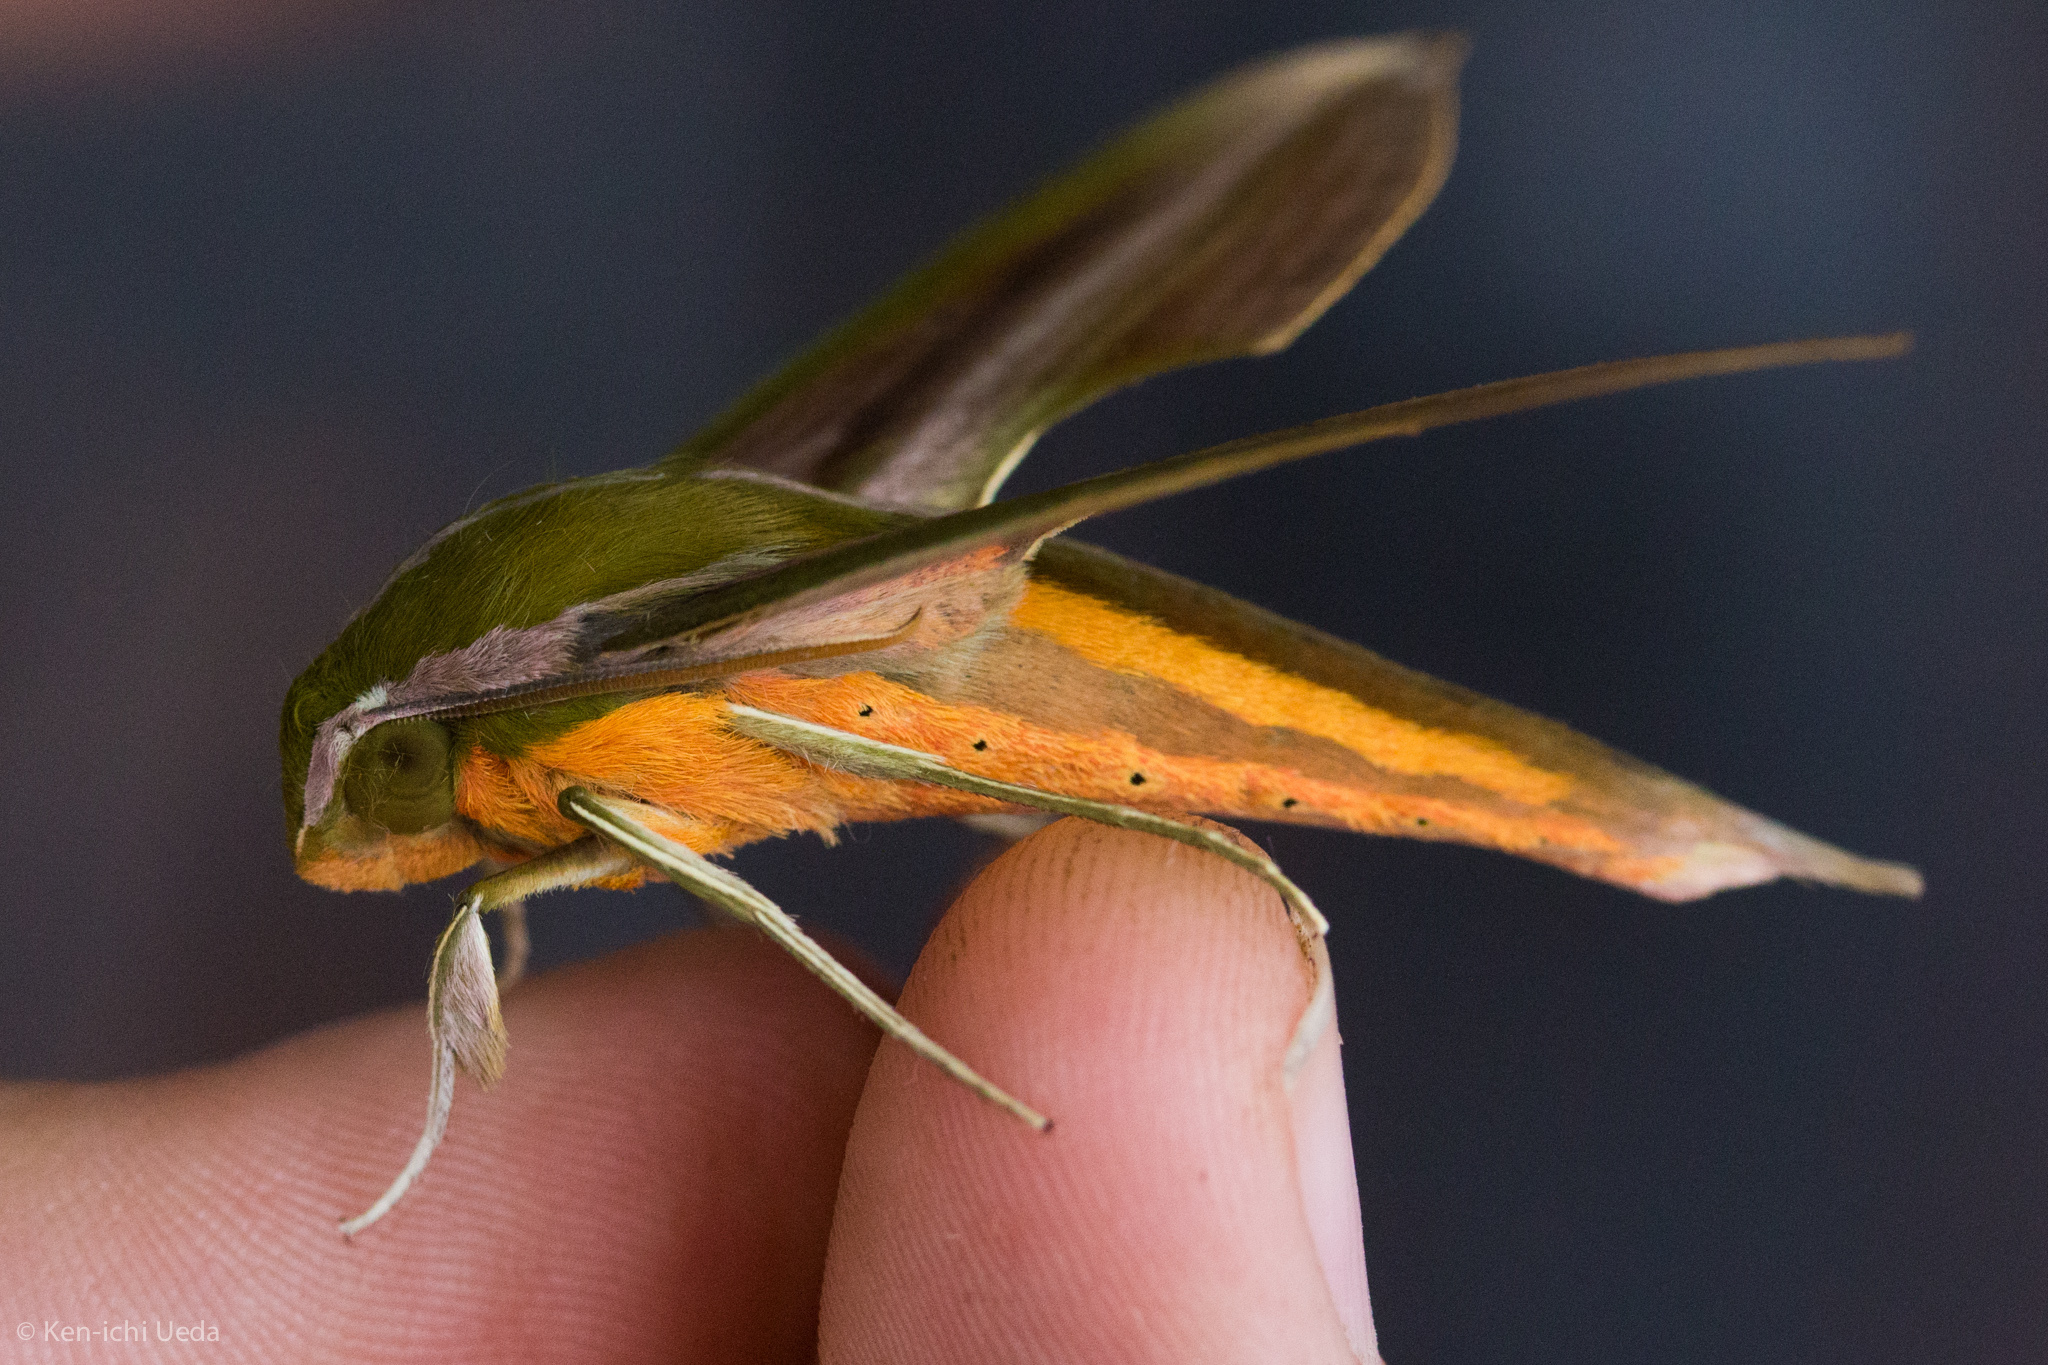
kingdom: Animalia
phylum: Arthropoda
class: Insecta
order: Lepidoptera
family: Sphingidae
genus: Xylophanes
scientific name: Xylophanes resta
